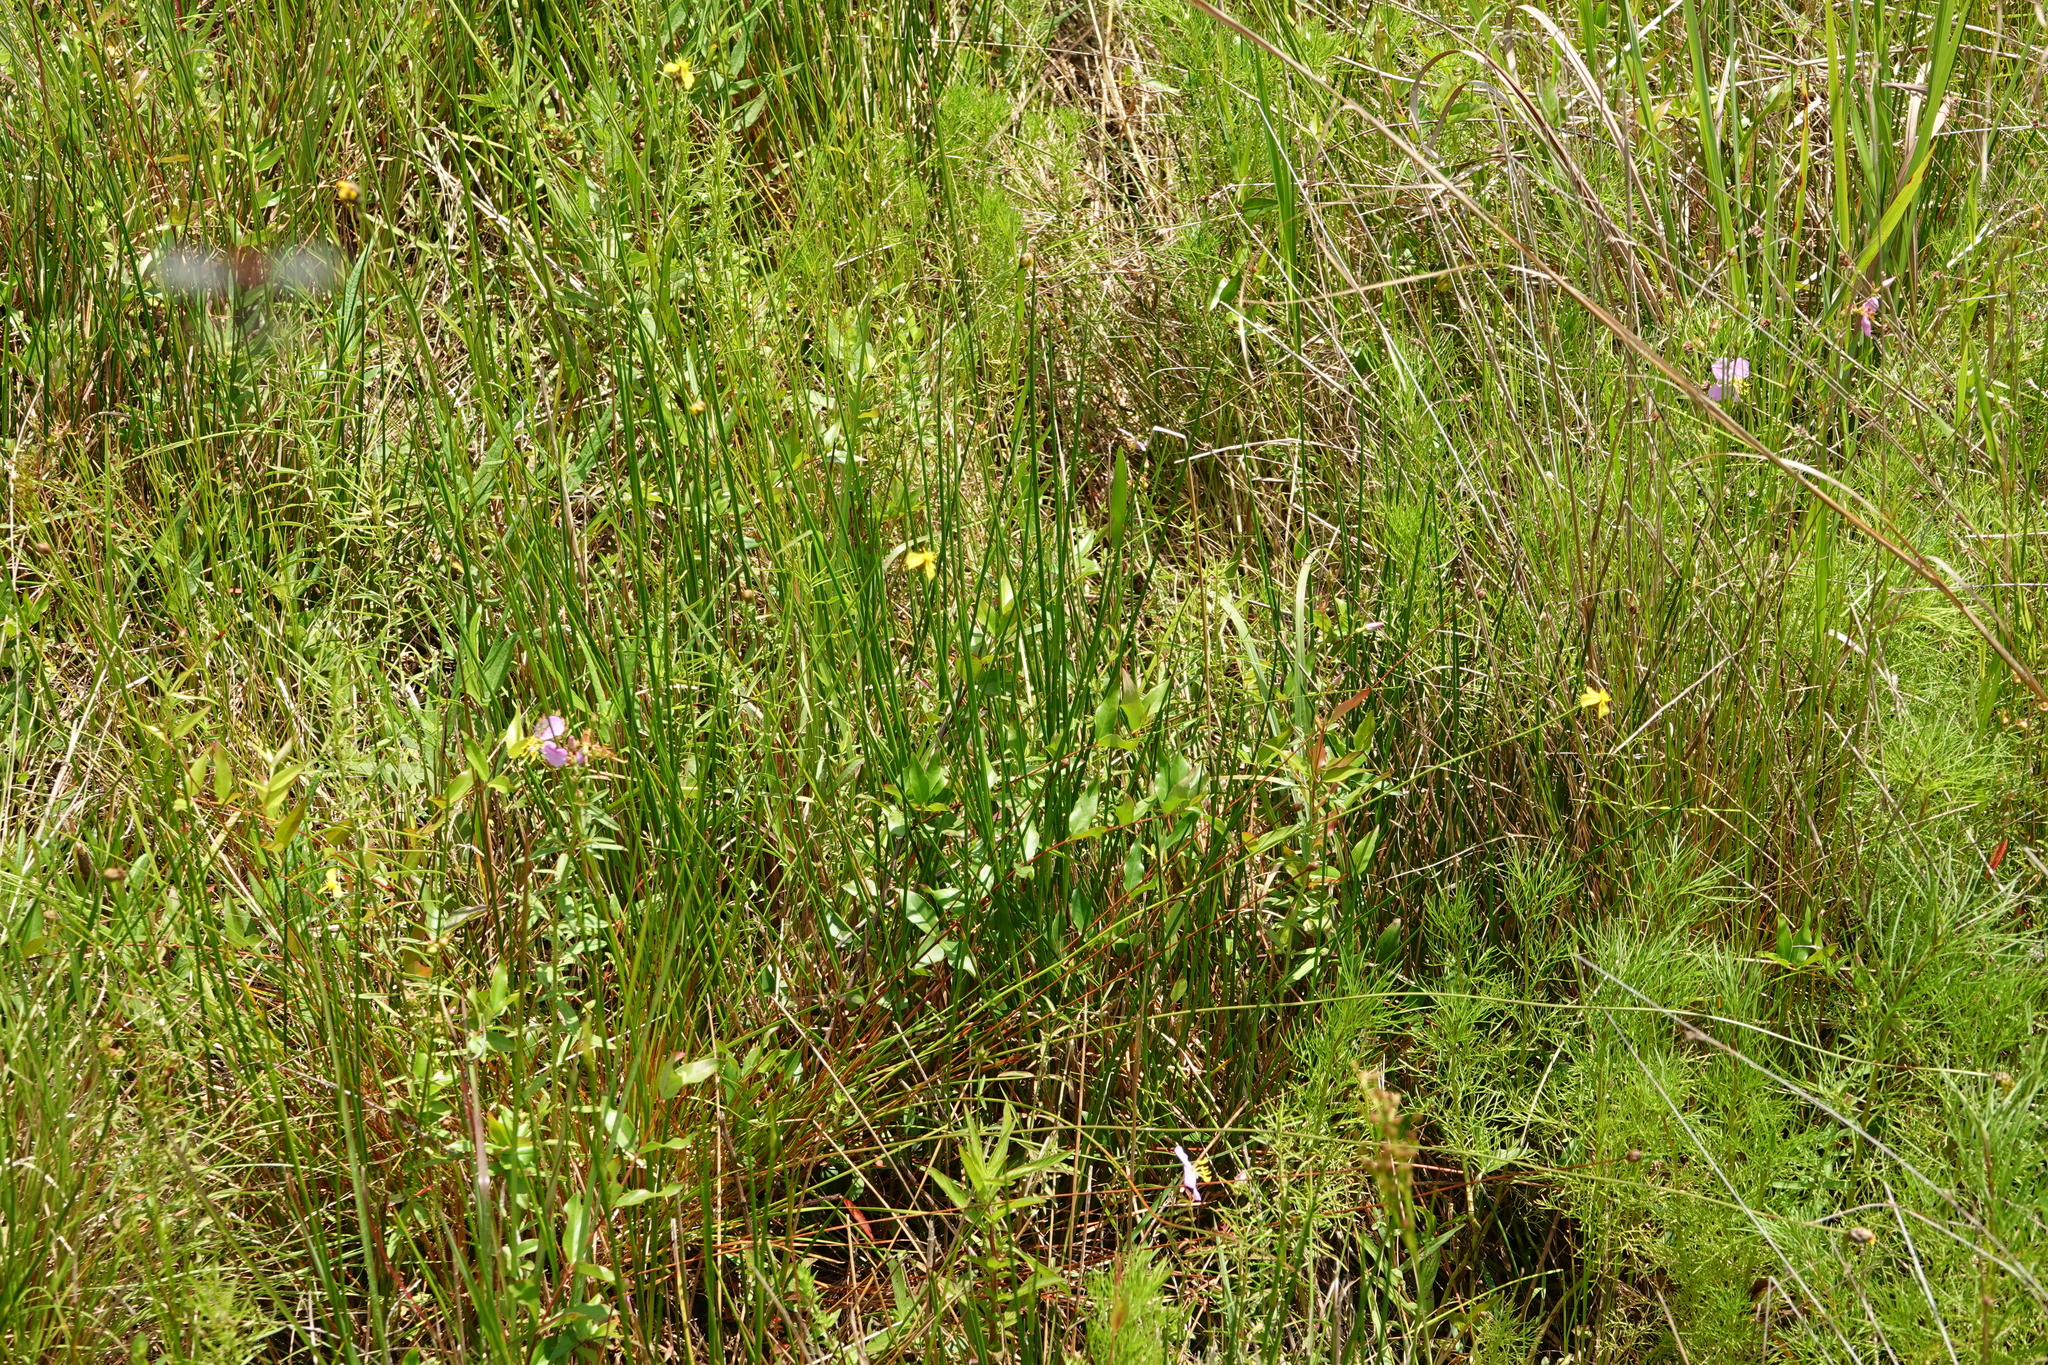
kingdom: Plantae
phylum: Tracheophyta
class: Liliopsida
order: Poales
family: Xyridaceae
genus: Xyris
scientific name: Xyris elliottii
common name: Elliot's yelloweyed grass
